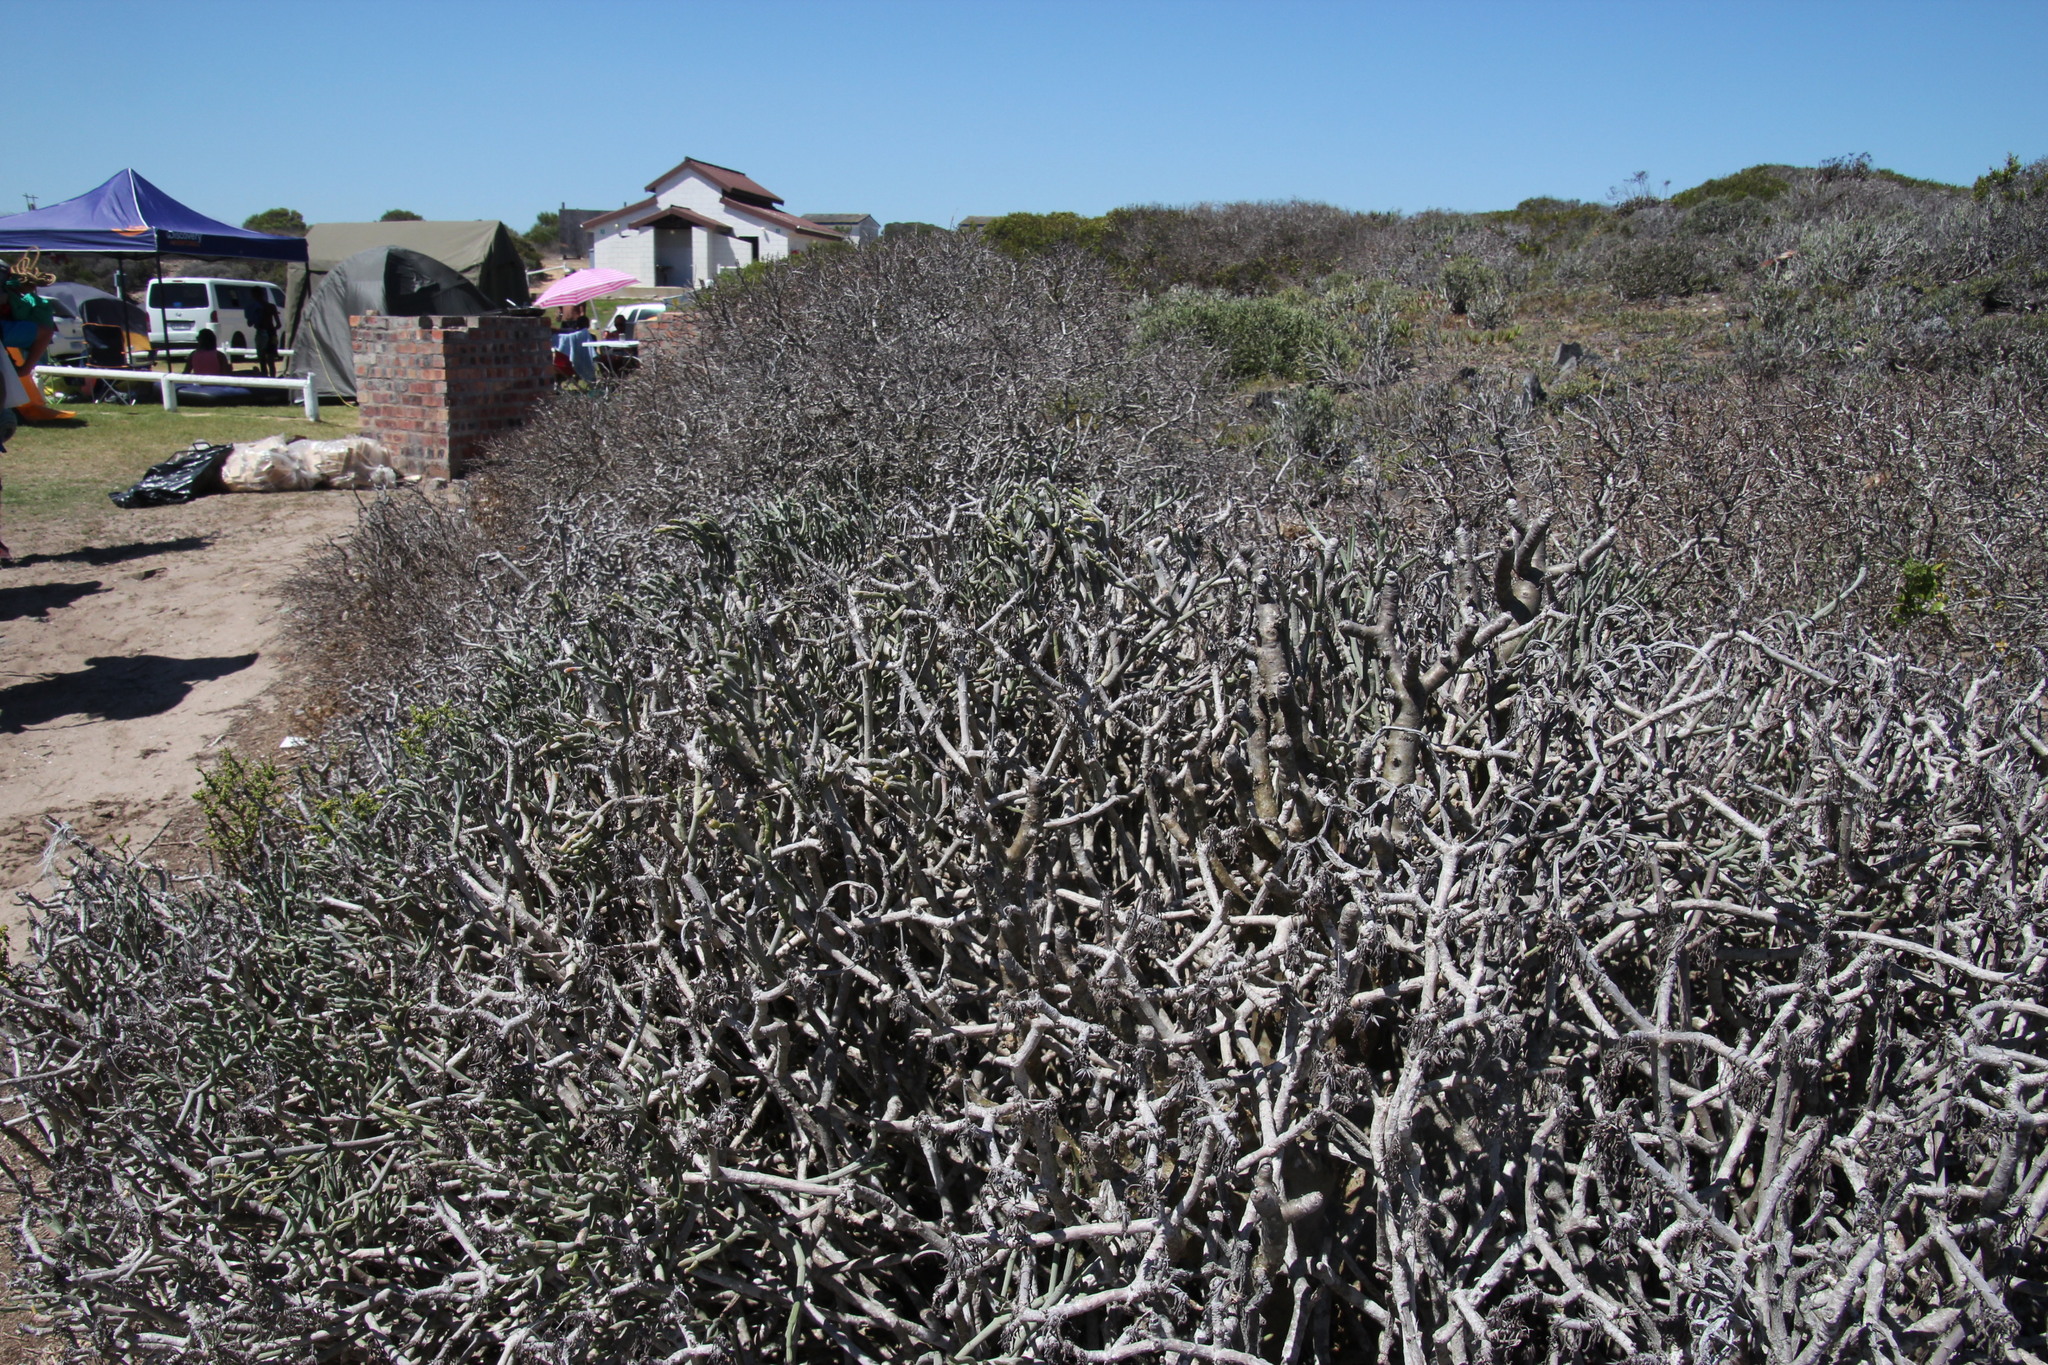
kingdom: Plantae
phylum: Tracheophyta
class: Magnoliopsida
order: Malpighiales
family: Euphorbiaceae
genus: Euphorbia
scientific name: Euphorbia burmanni
